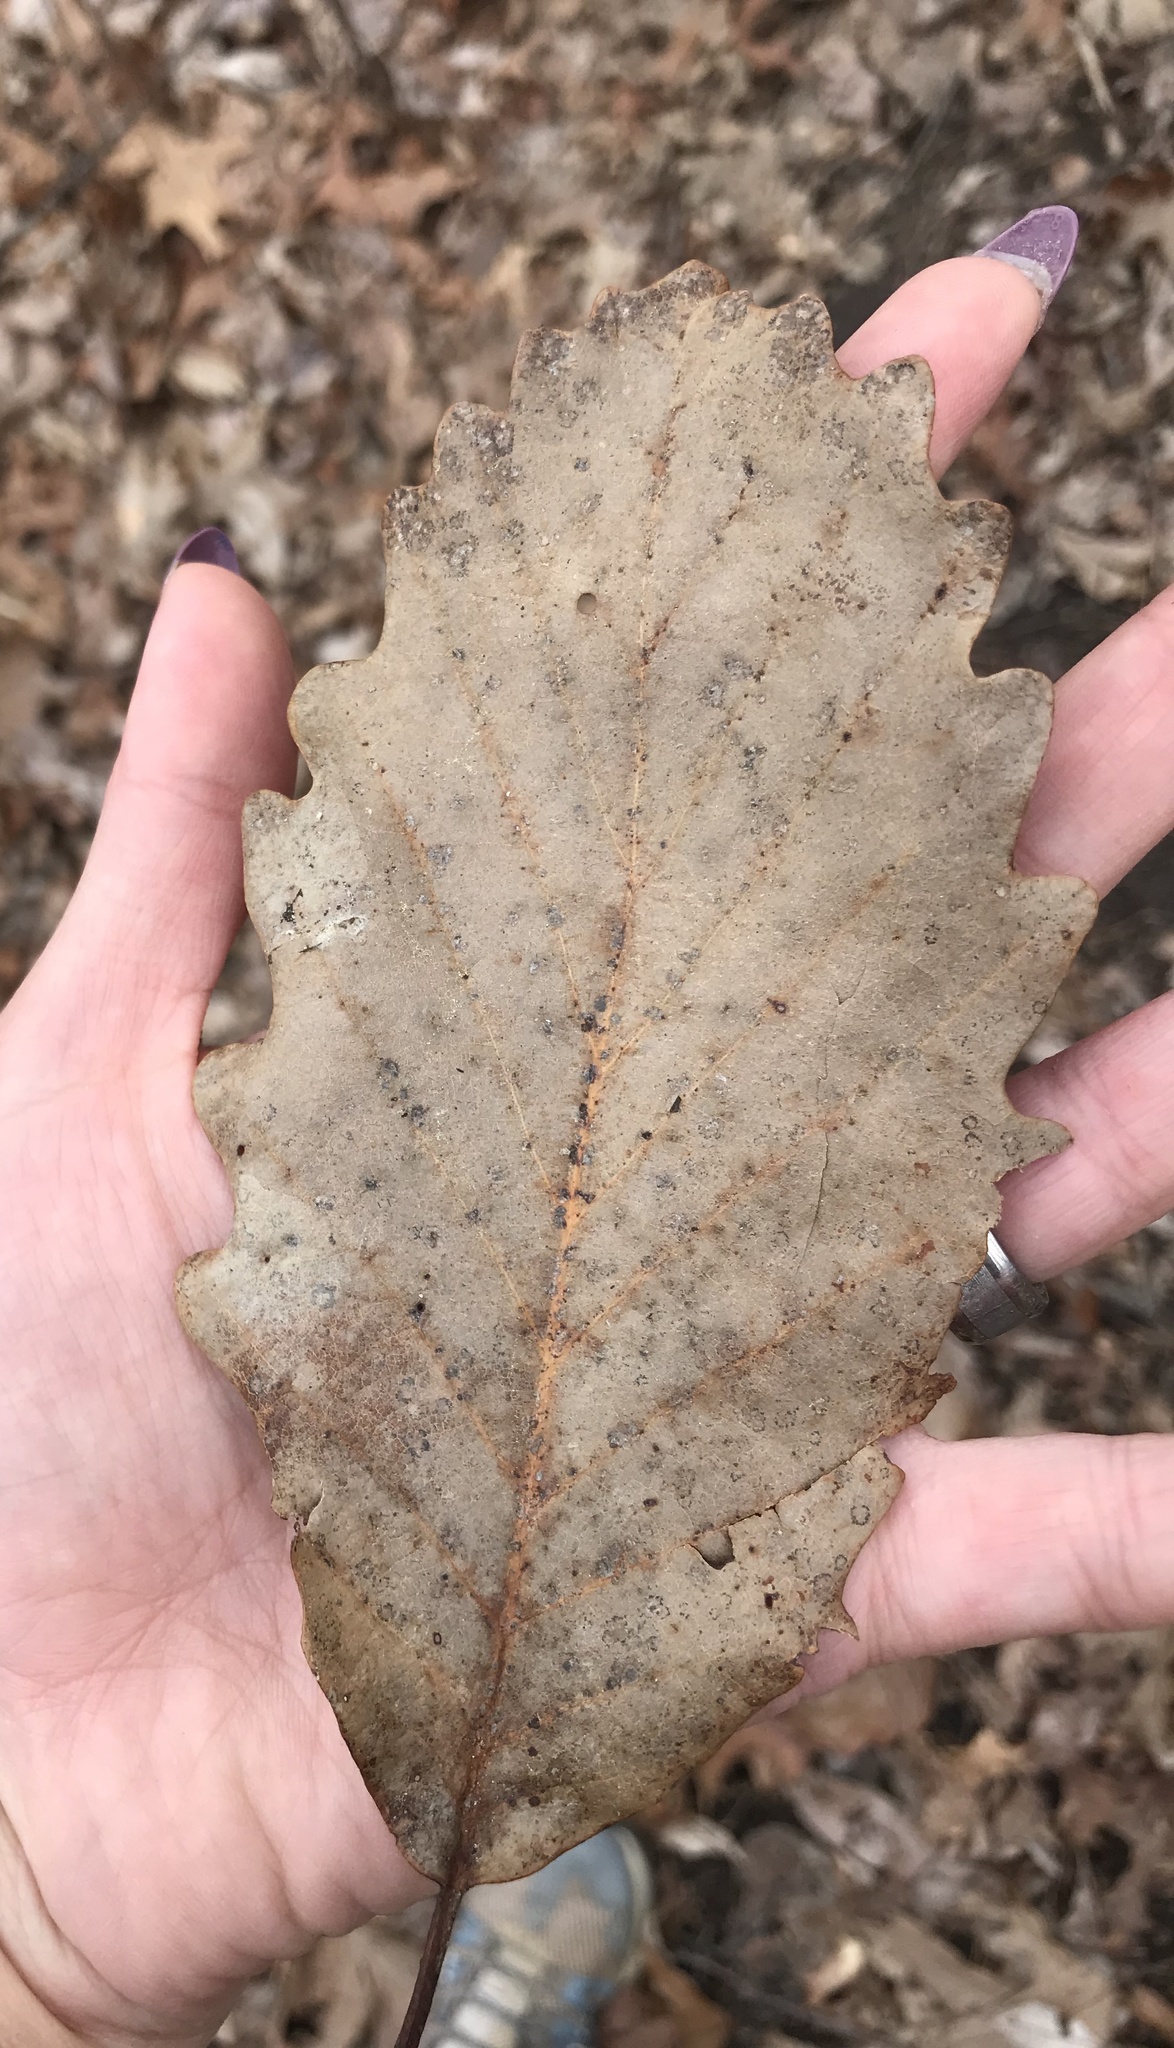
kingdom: Plantae
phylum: Tracheophyta
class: Magnoliopsida
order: Fagales
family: Fagaceae
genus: Quercus
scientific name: Quercus montana
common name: Chestnut oak
